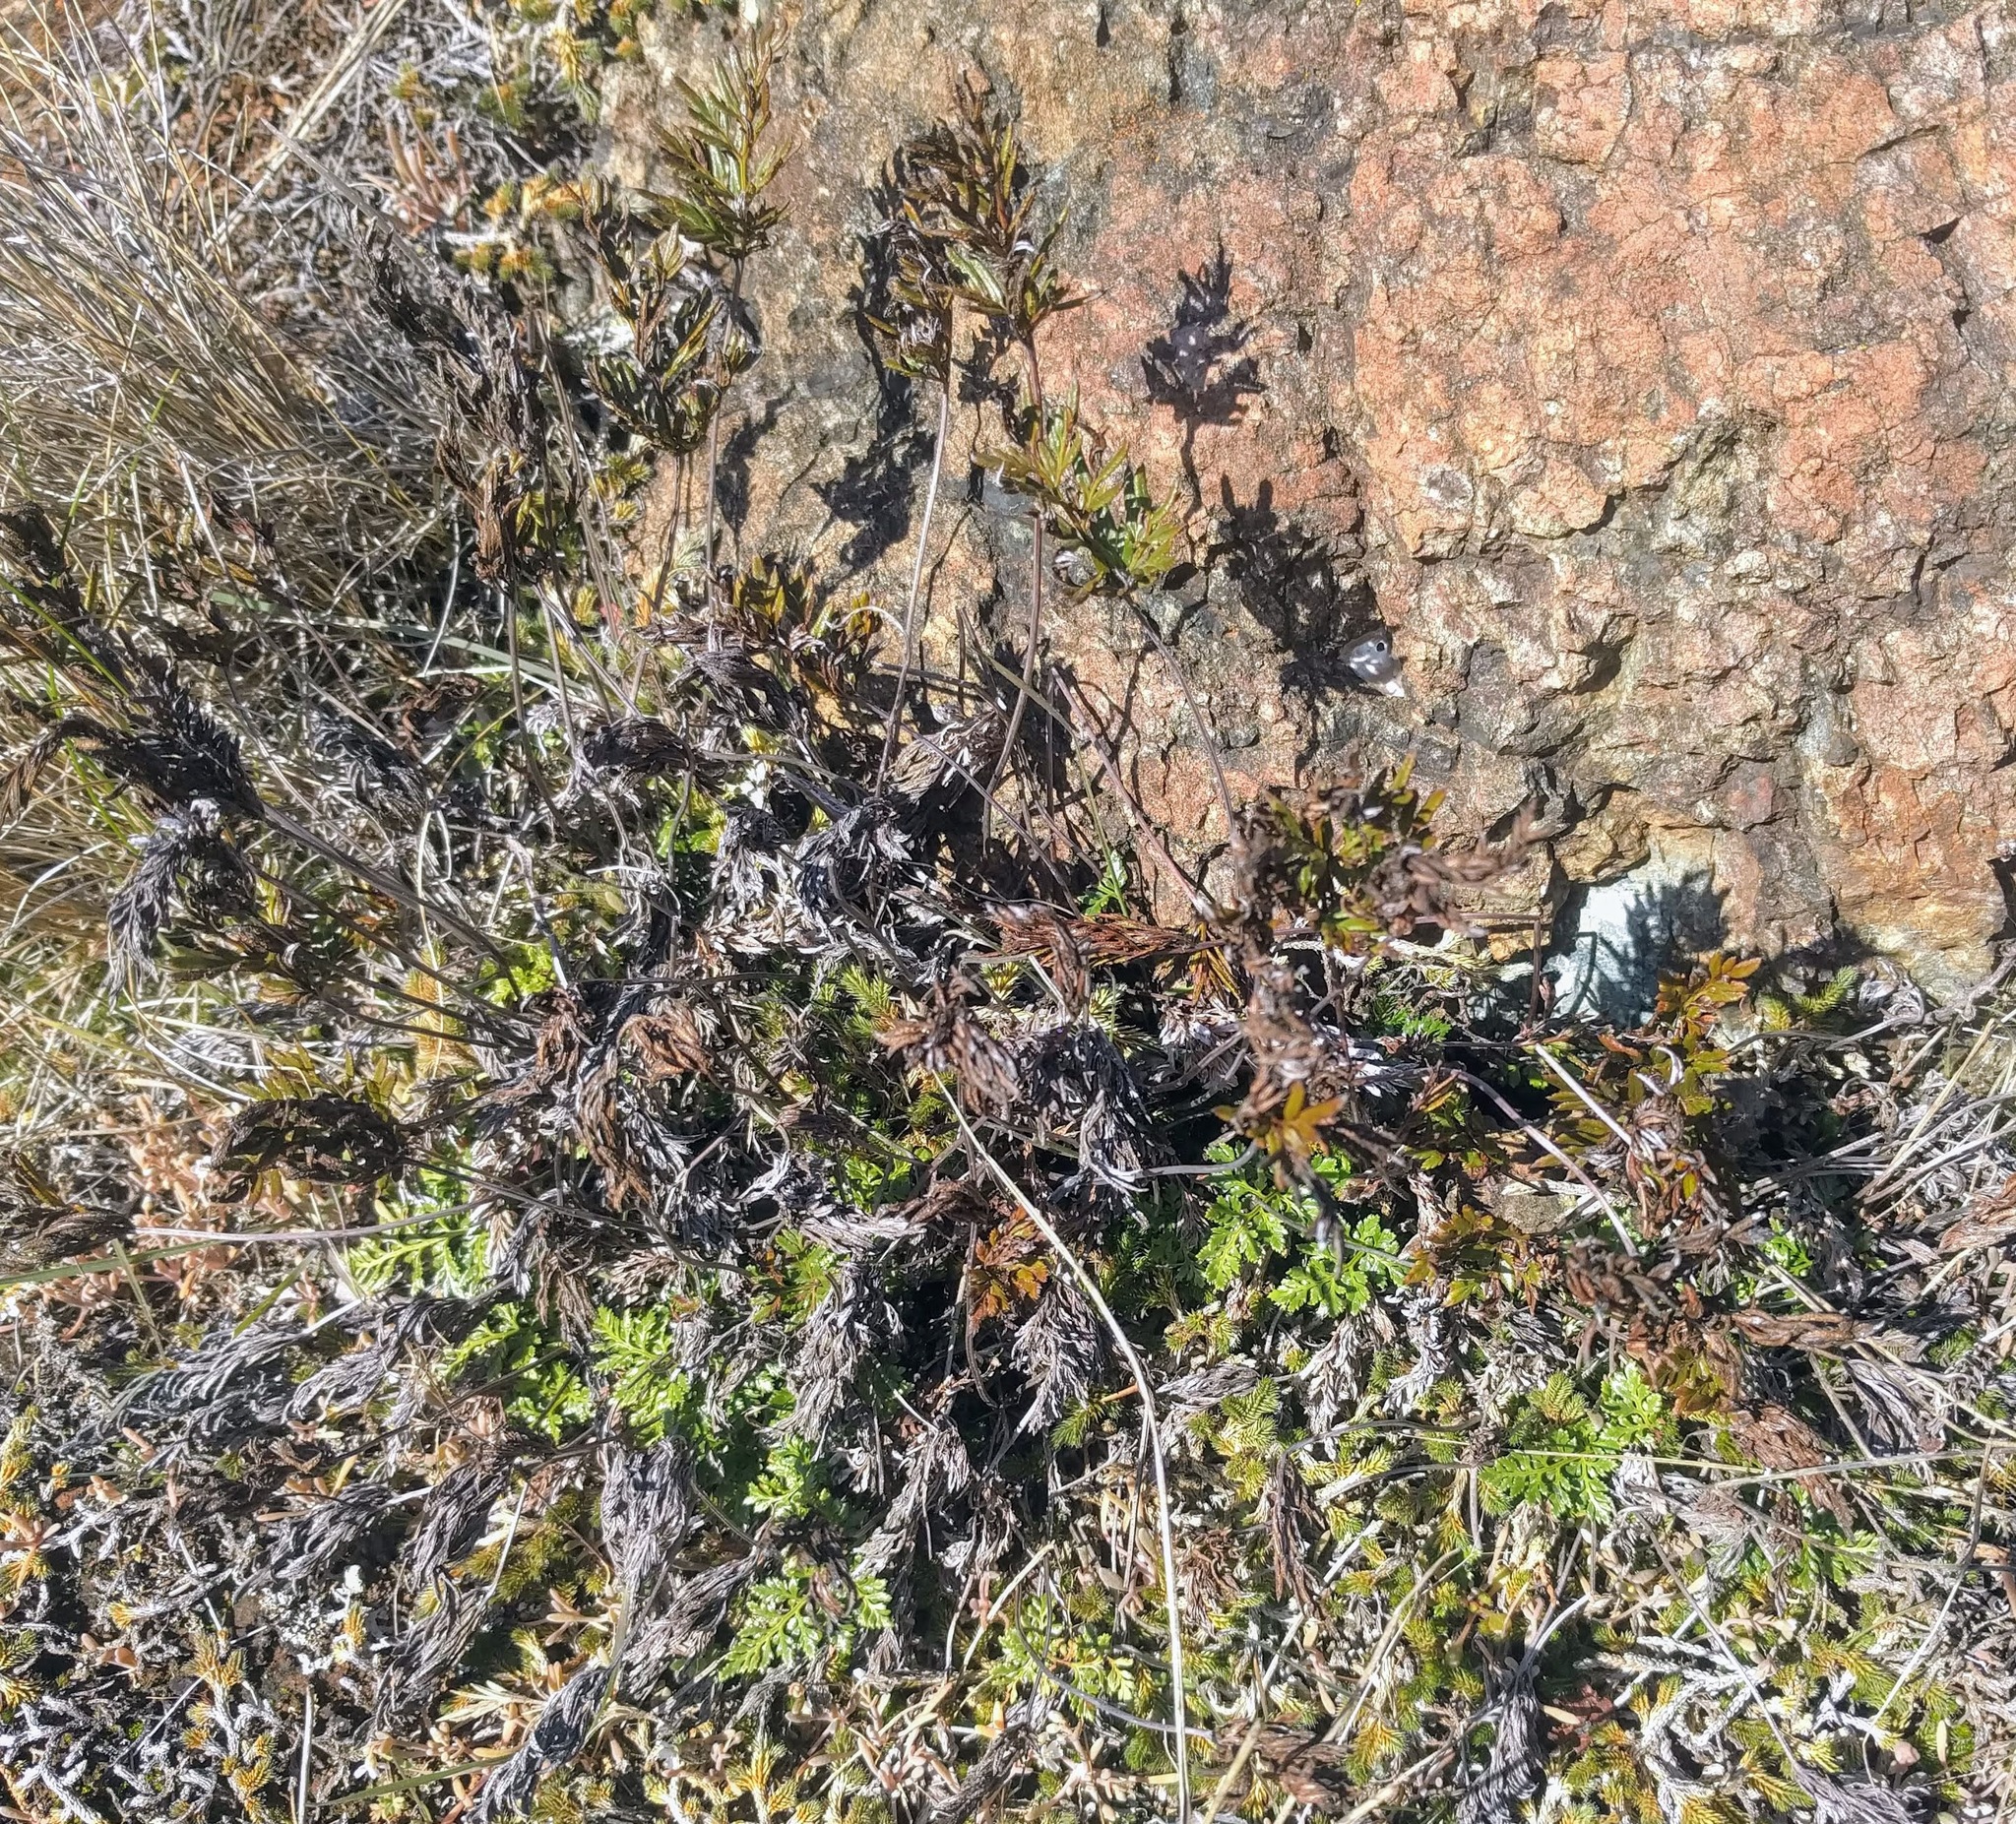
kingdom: Plantae
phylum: Tracheophyta
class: Polypodiopsida
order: Polypodiales
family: Pteridaceae
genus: Aspidotis
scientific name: Aspidotis densa
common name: Indian's dream
